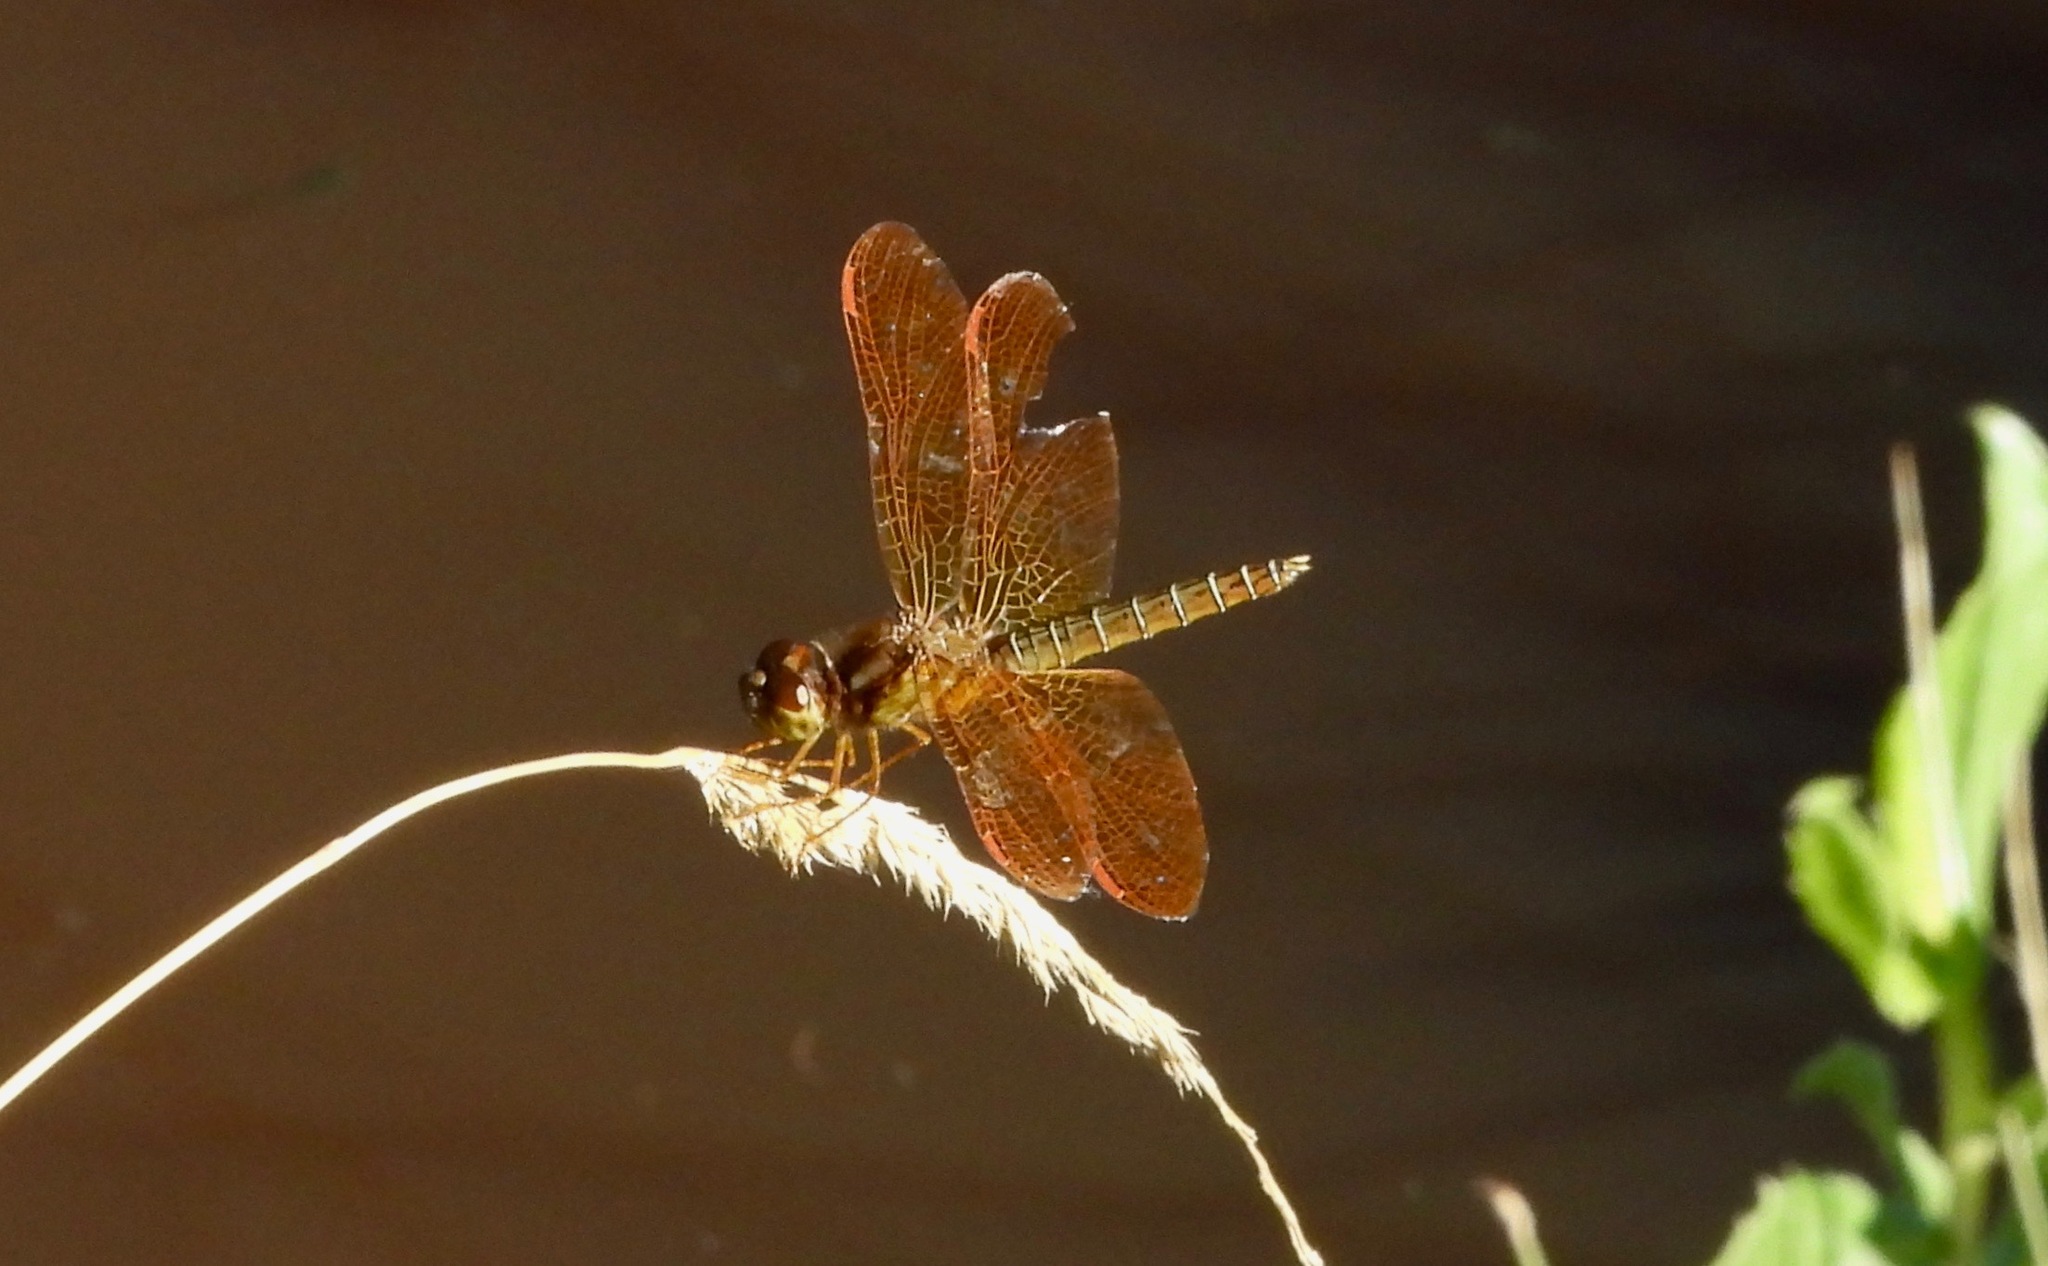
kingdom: Animalia
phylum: Arthropoda
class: Insecta
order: Odonata
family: Libellulidae
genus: Perithemis
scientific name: Perithemis tenera
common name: Eastern amberwing
